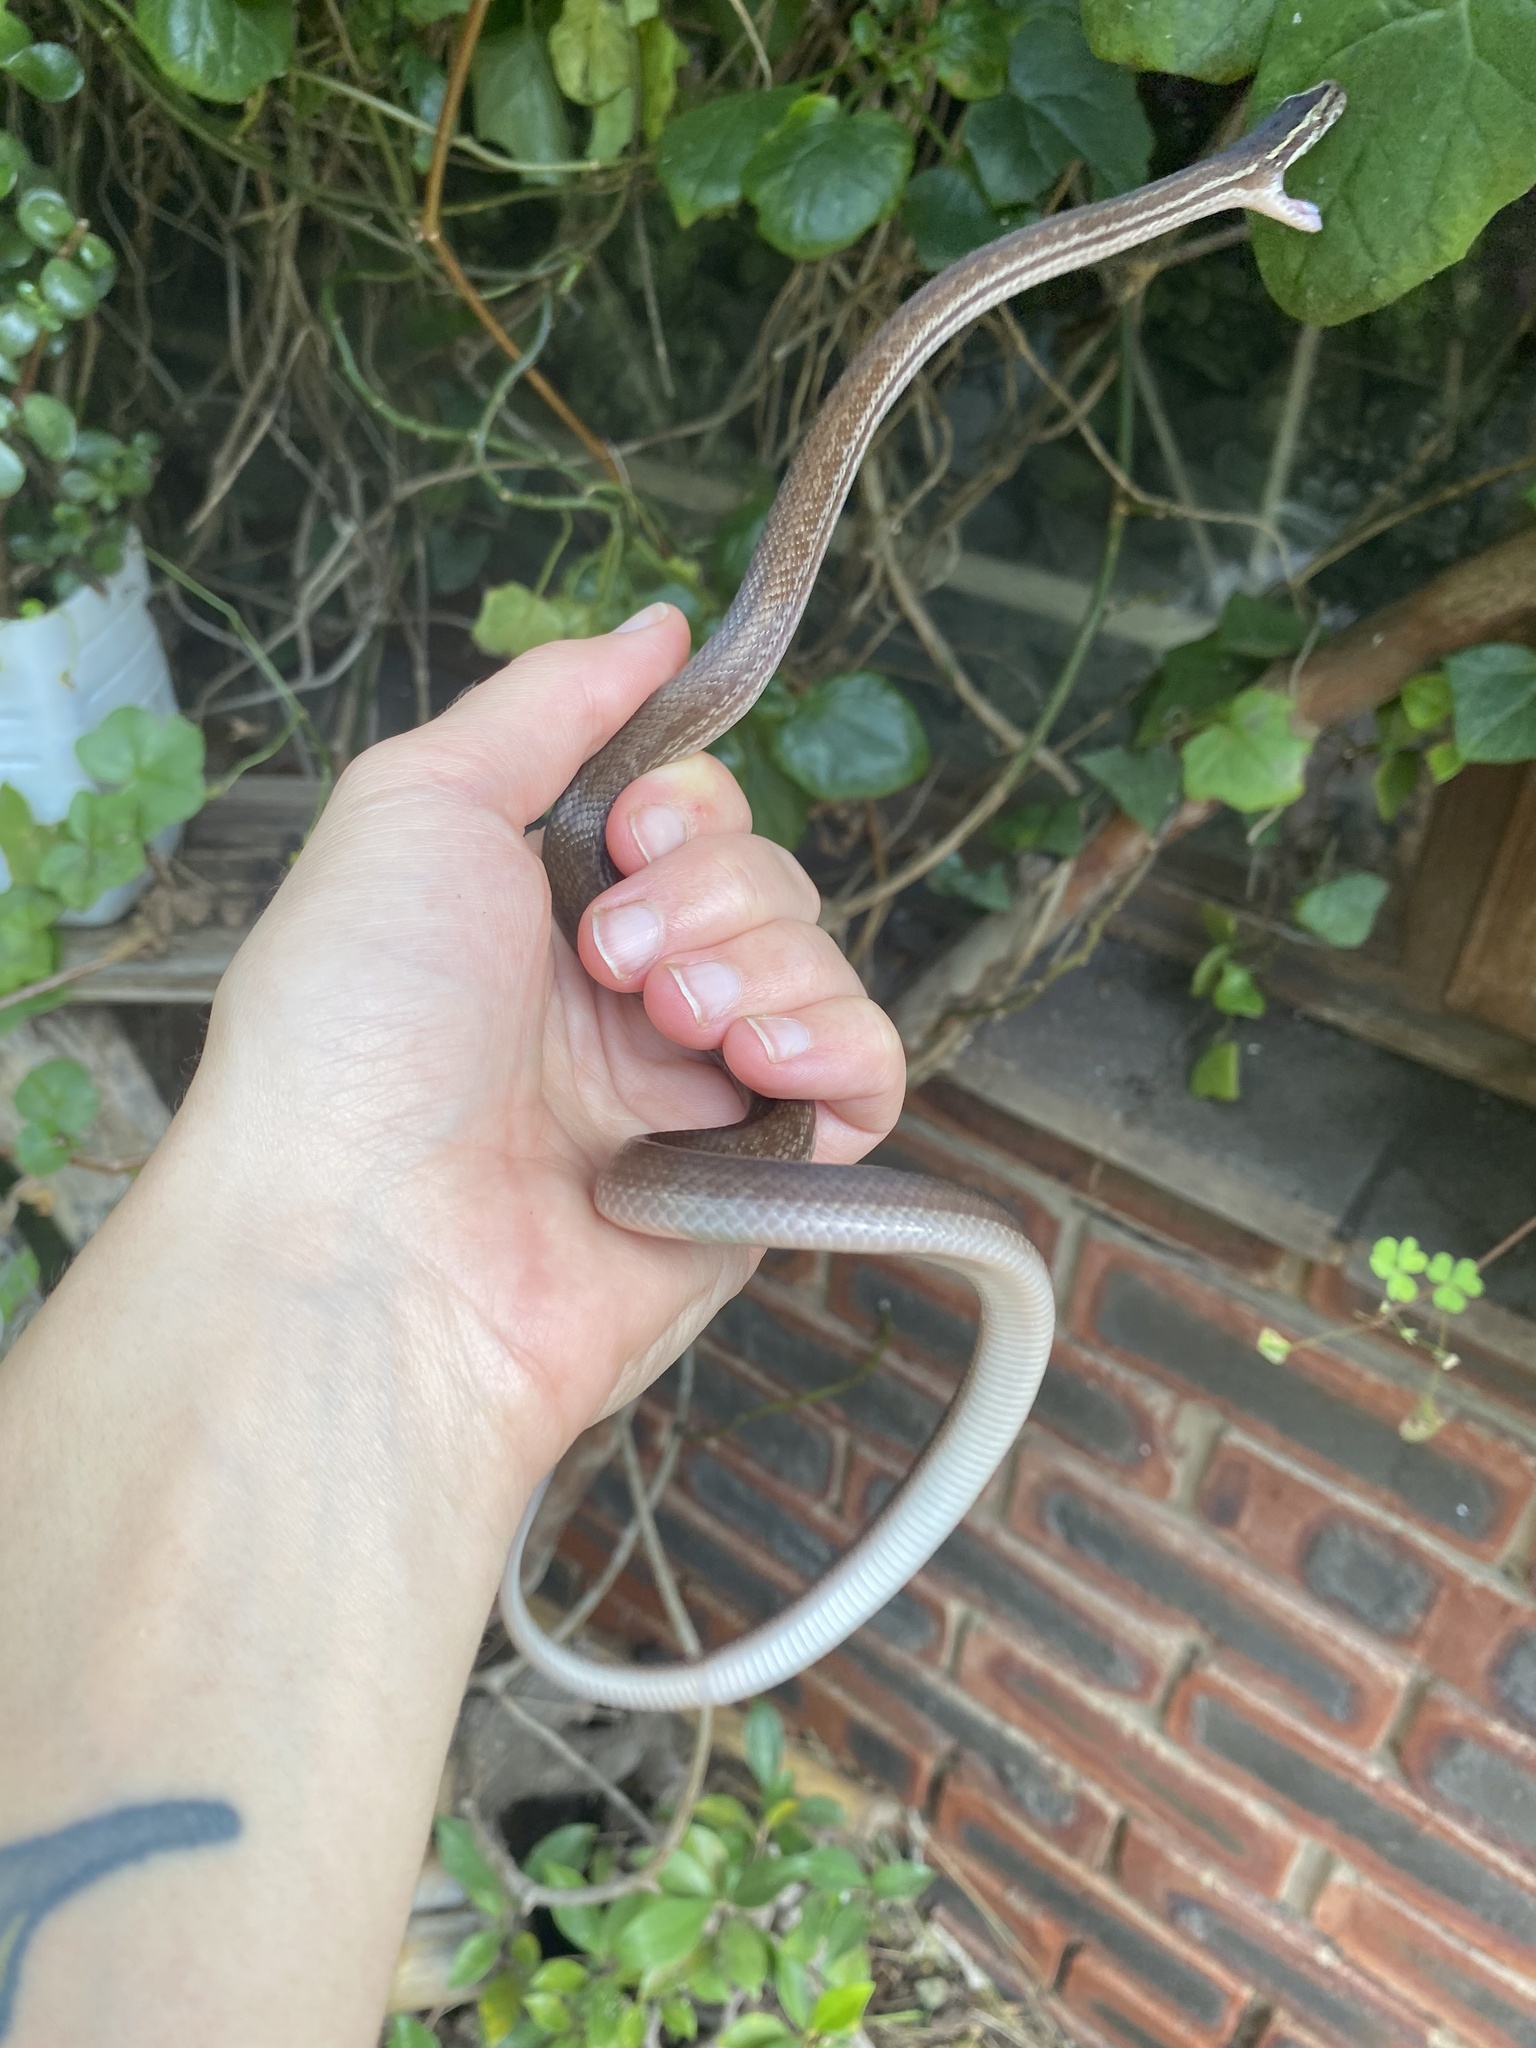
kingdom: Animalia
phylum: Chordata
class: Squamata
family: Lamprophiidae
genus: Boaedon
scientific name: Boaedon capensis
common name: Brown house snake
